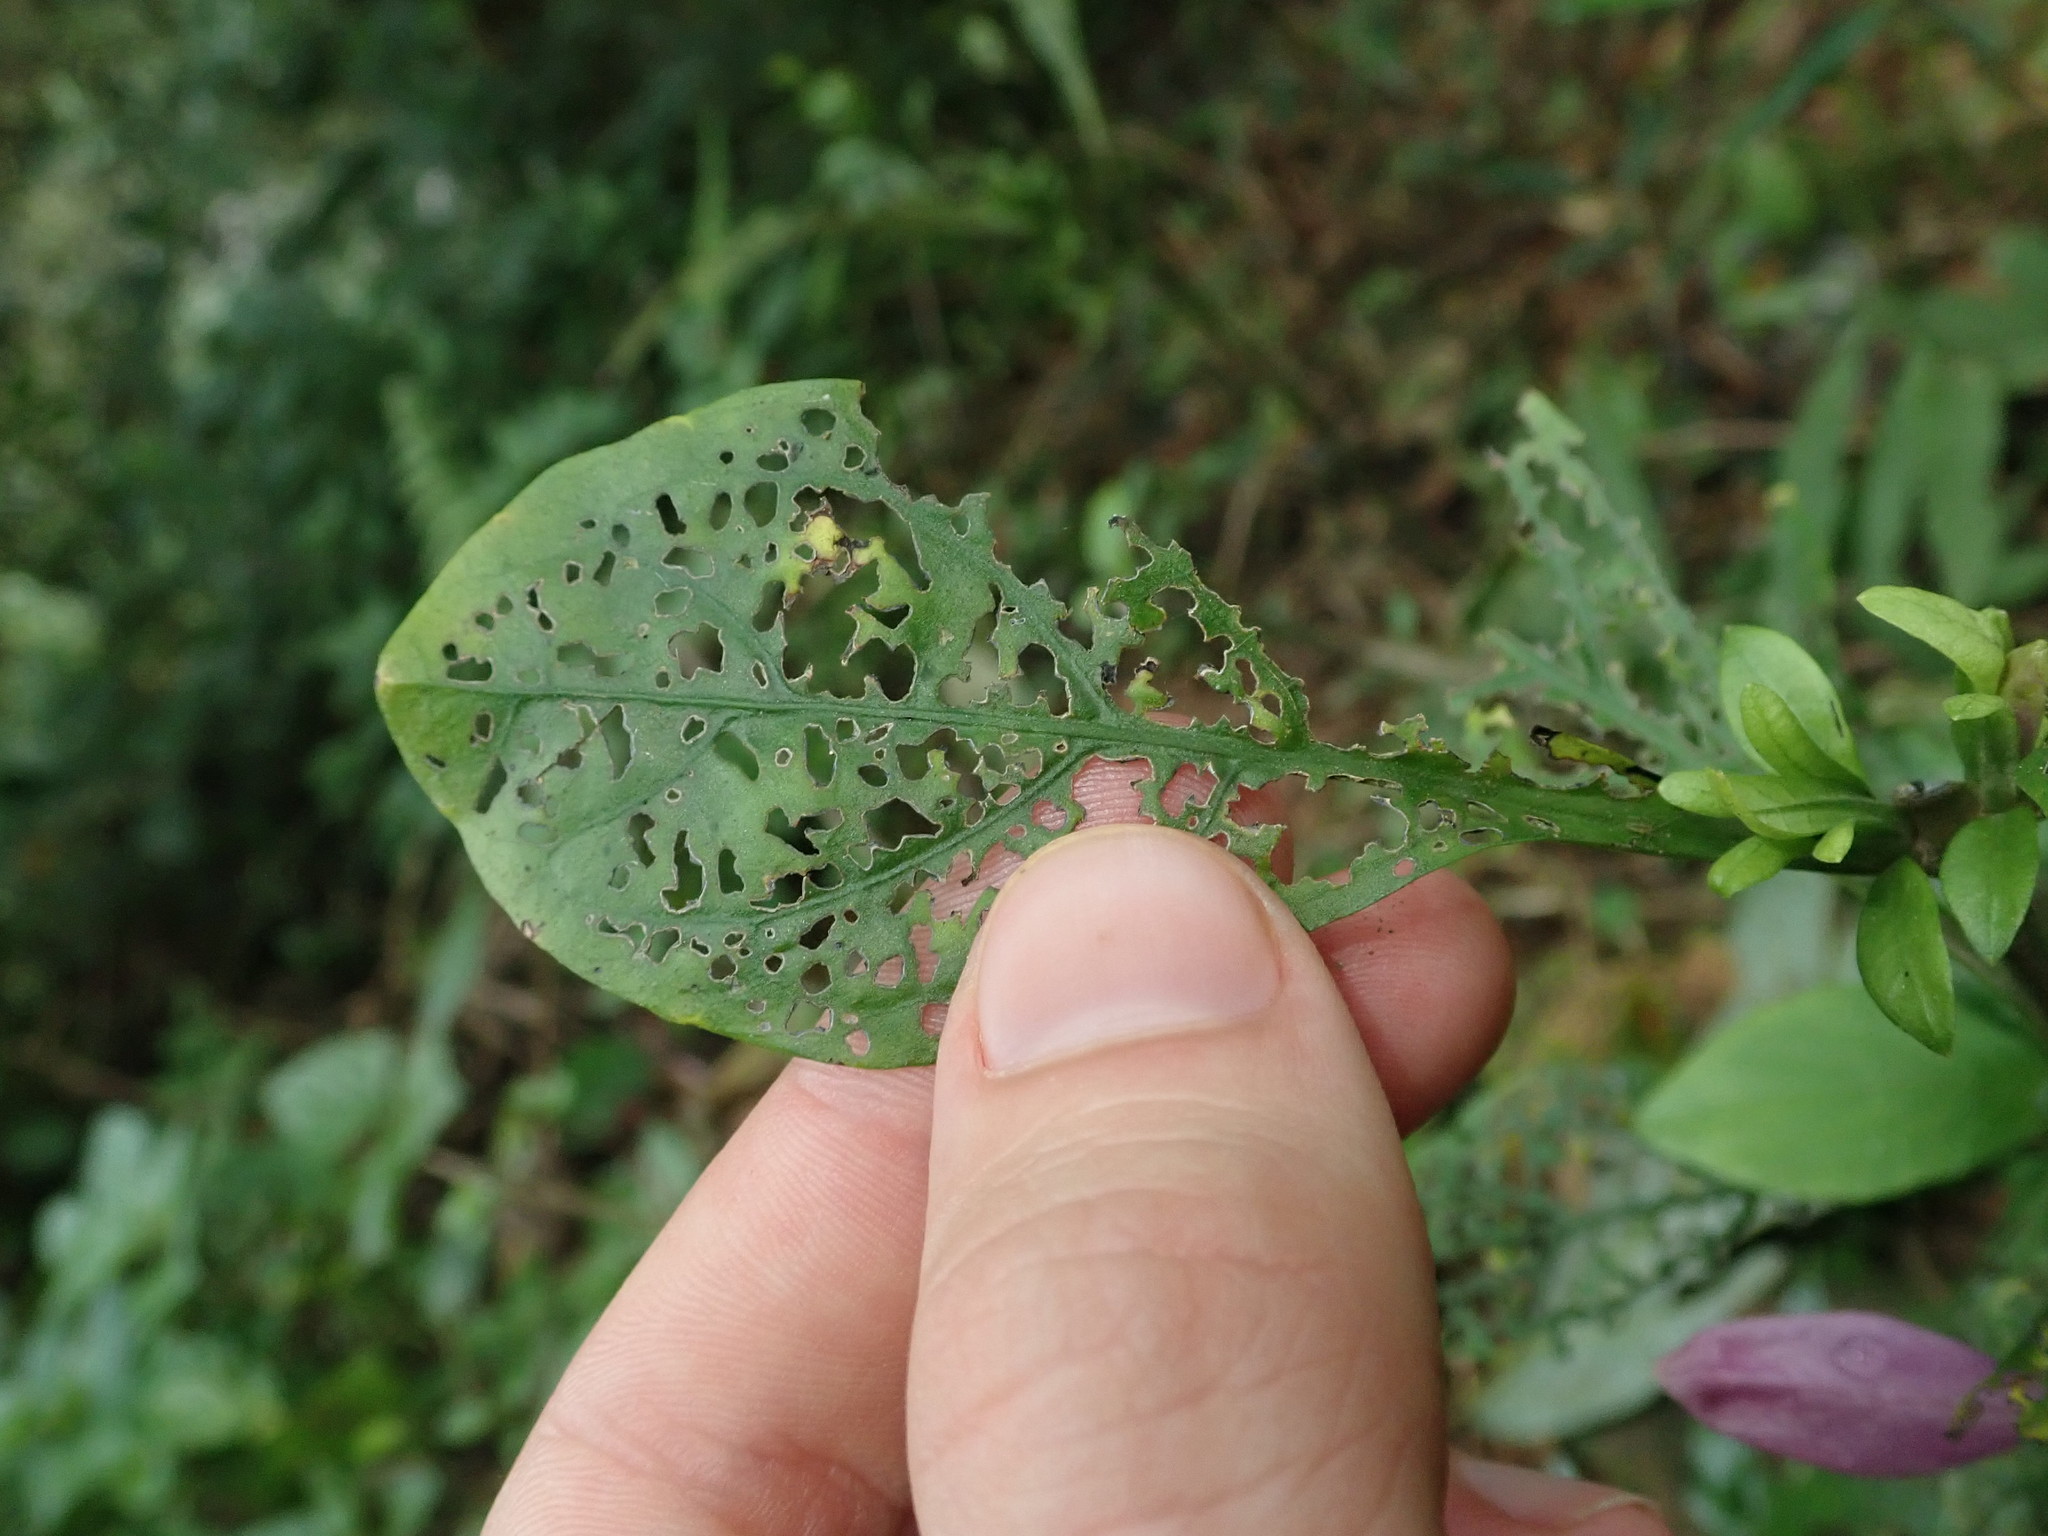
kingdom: Plantae
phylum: Tracheophyta
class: Magnoliopsida
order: Lamiales
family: Acanthaceae
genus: Strobilanthes
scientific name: Strobilanthes cusia
